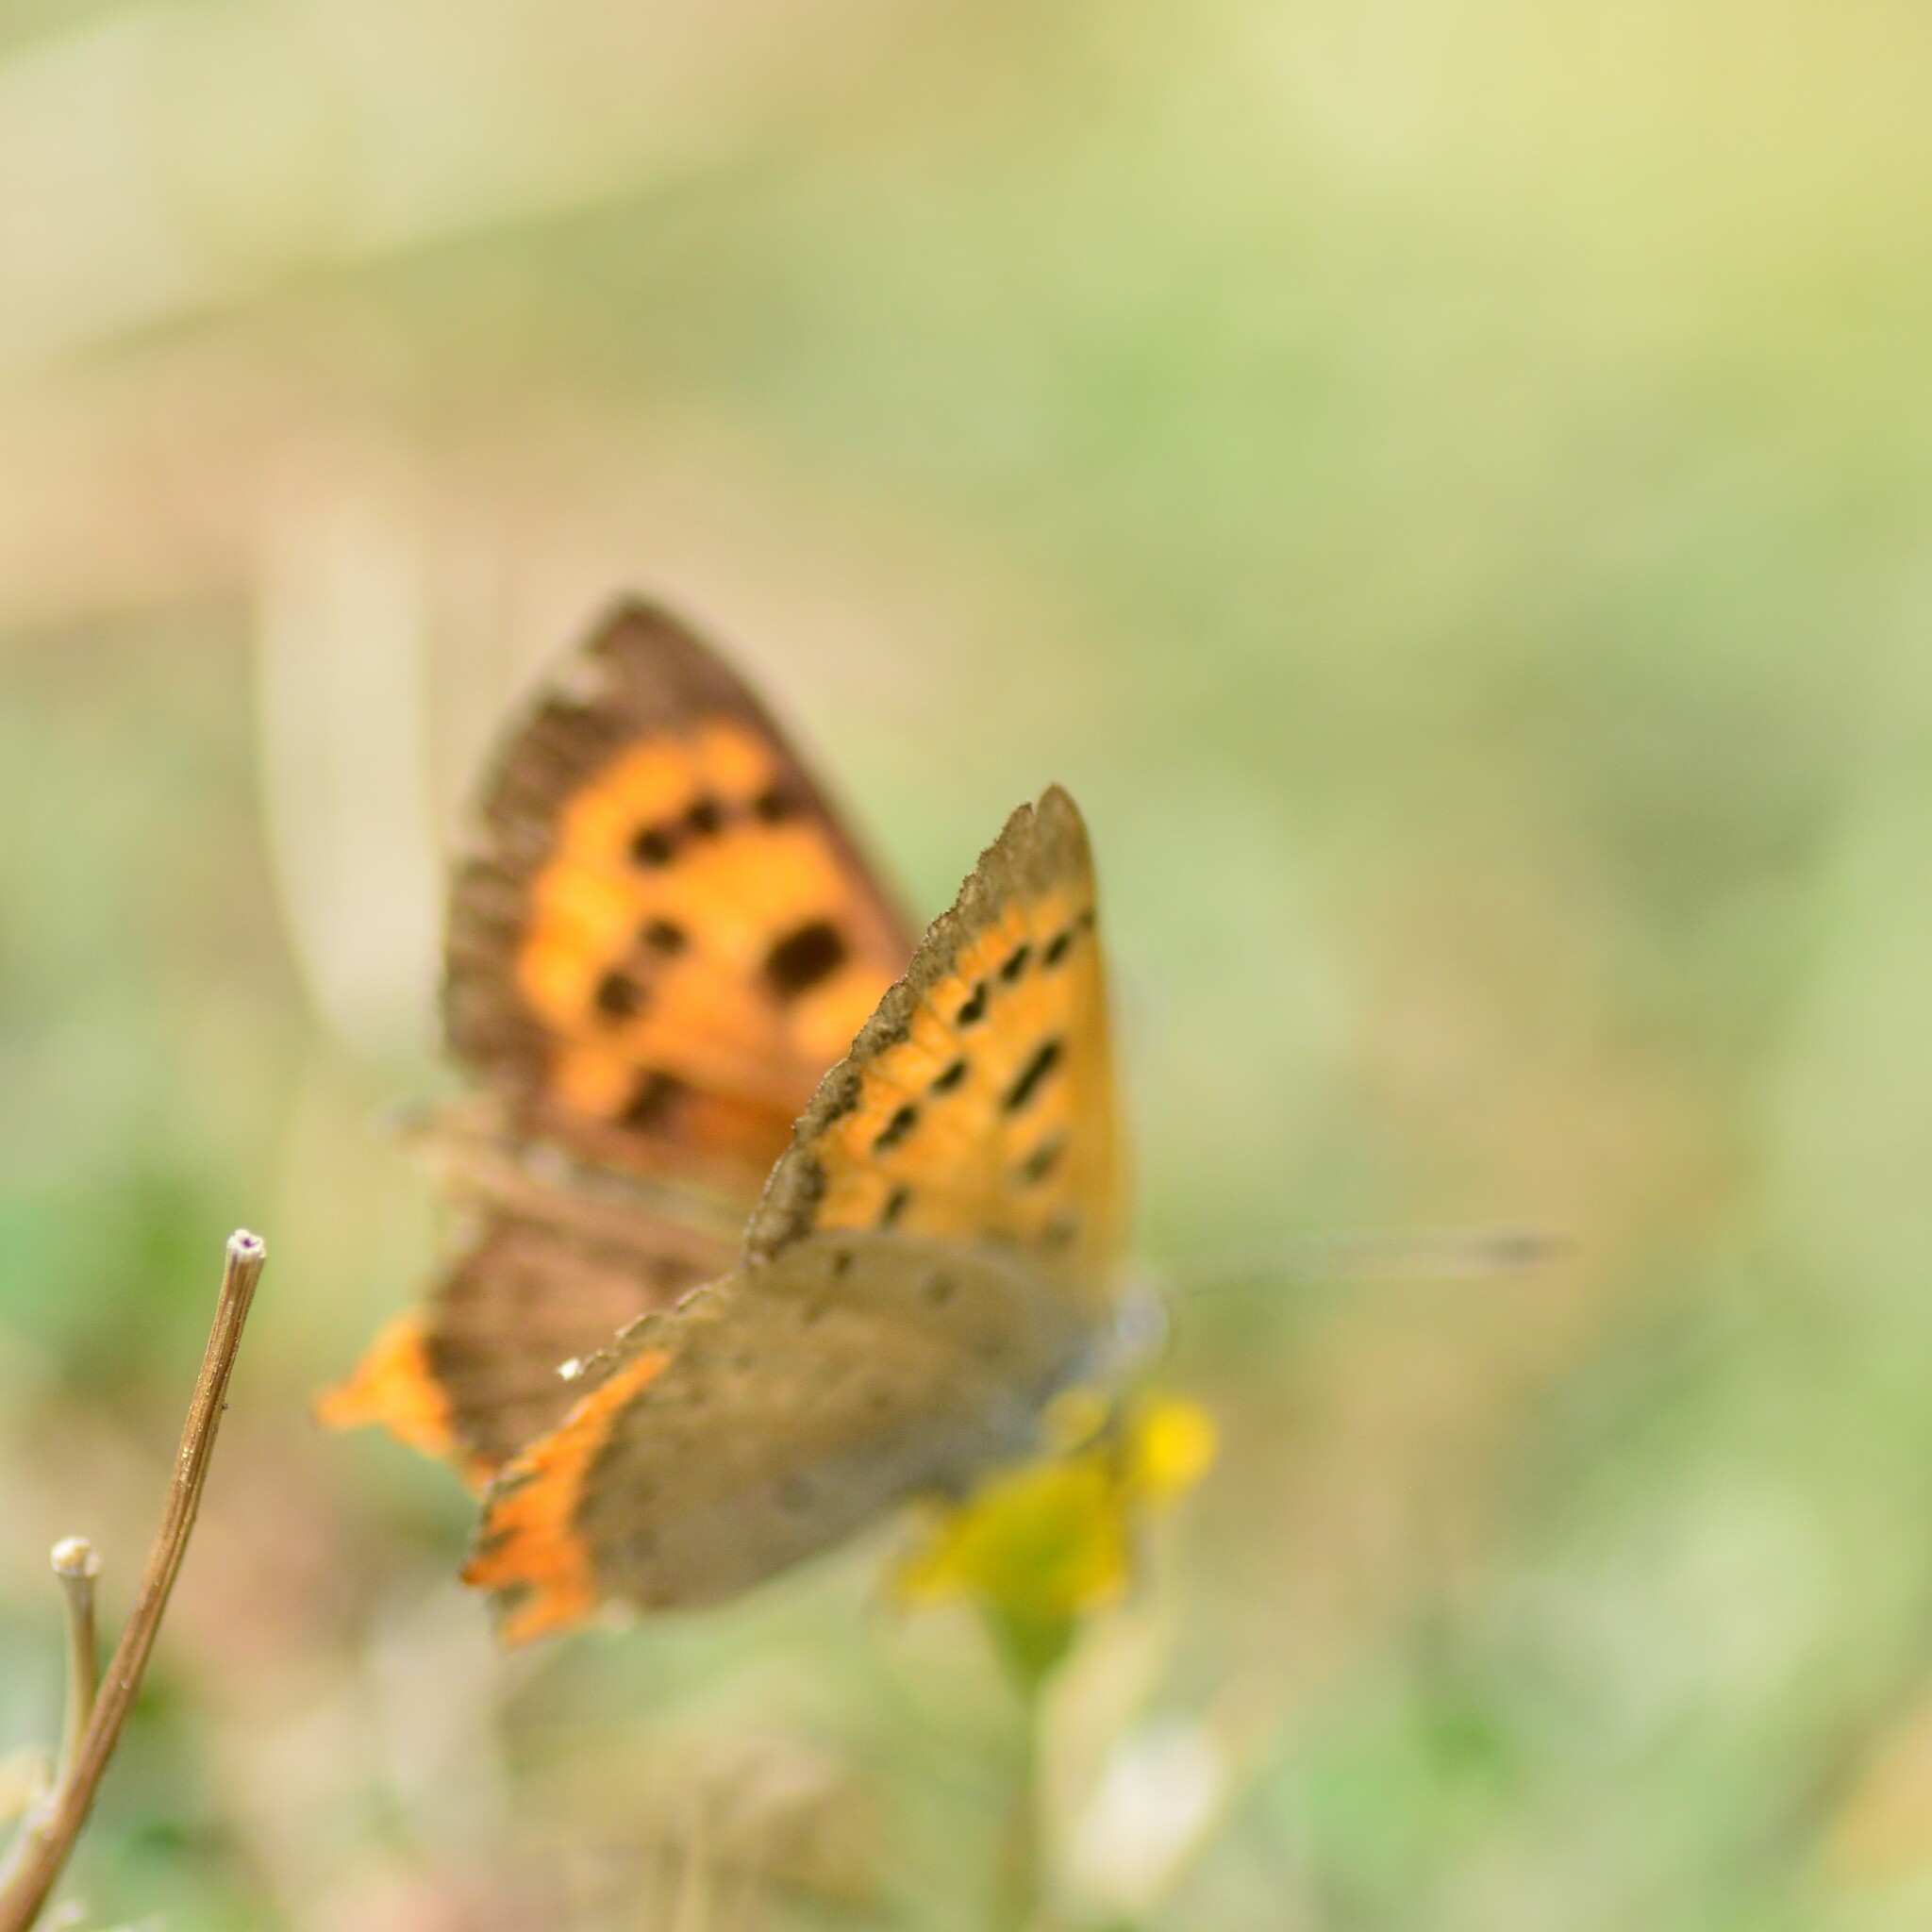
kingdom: Animalia
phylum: Arthropoda
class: Insecta
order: Lepidoptera
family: Lycaenidae
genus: Lycaena
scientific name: Lycaena phlaeas
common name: Small copper
